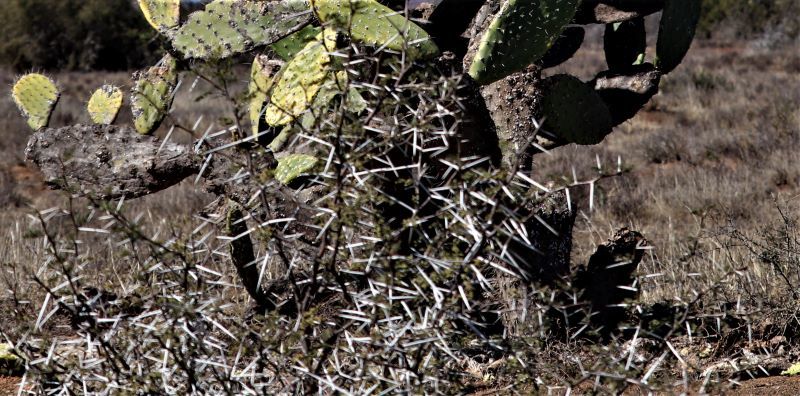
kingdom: Plantae
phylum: Tracheophyta
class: Magnoliopsida
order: Fabales
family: Fabaceae
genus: Vachellia
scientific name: Vachellia karroo
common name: Sweet thorn
